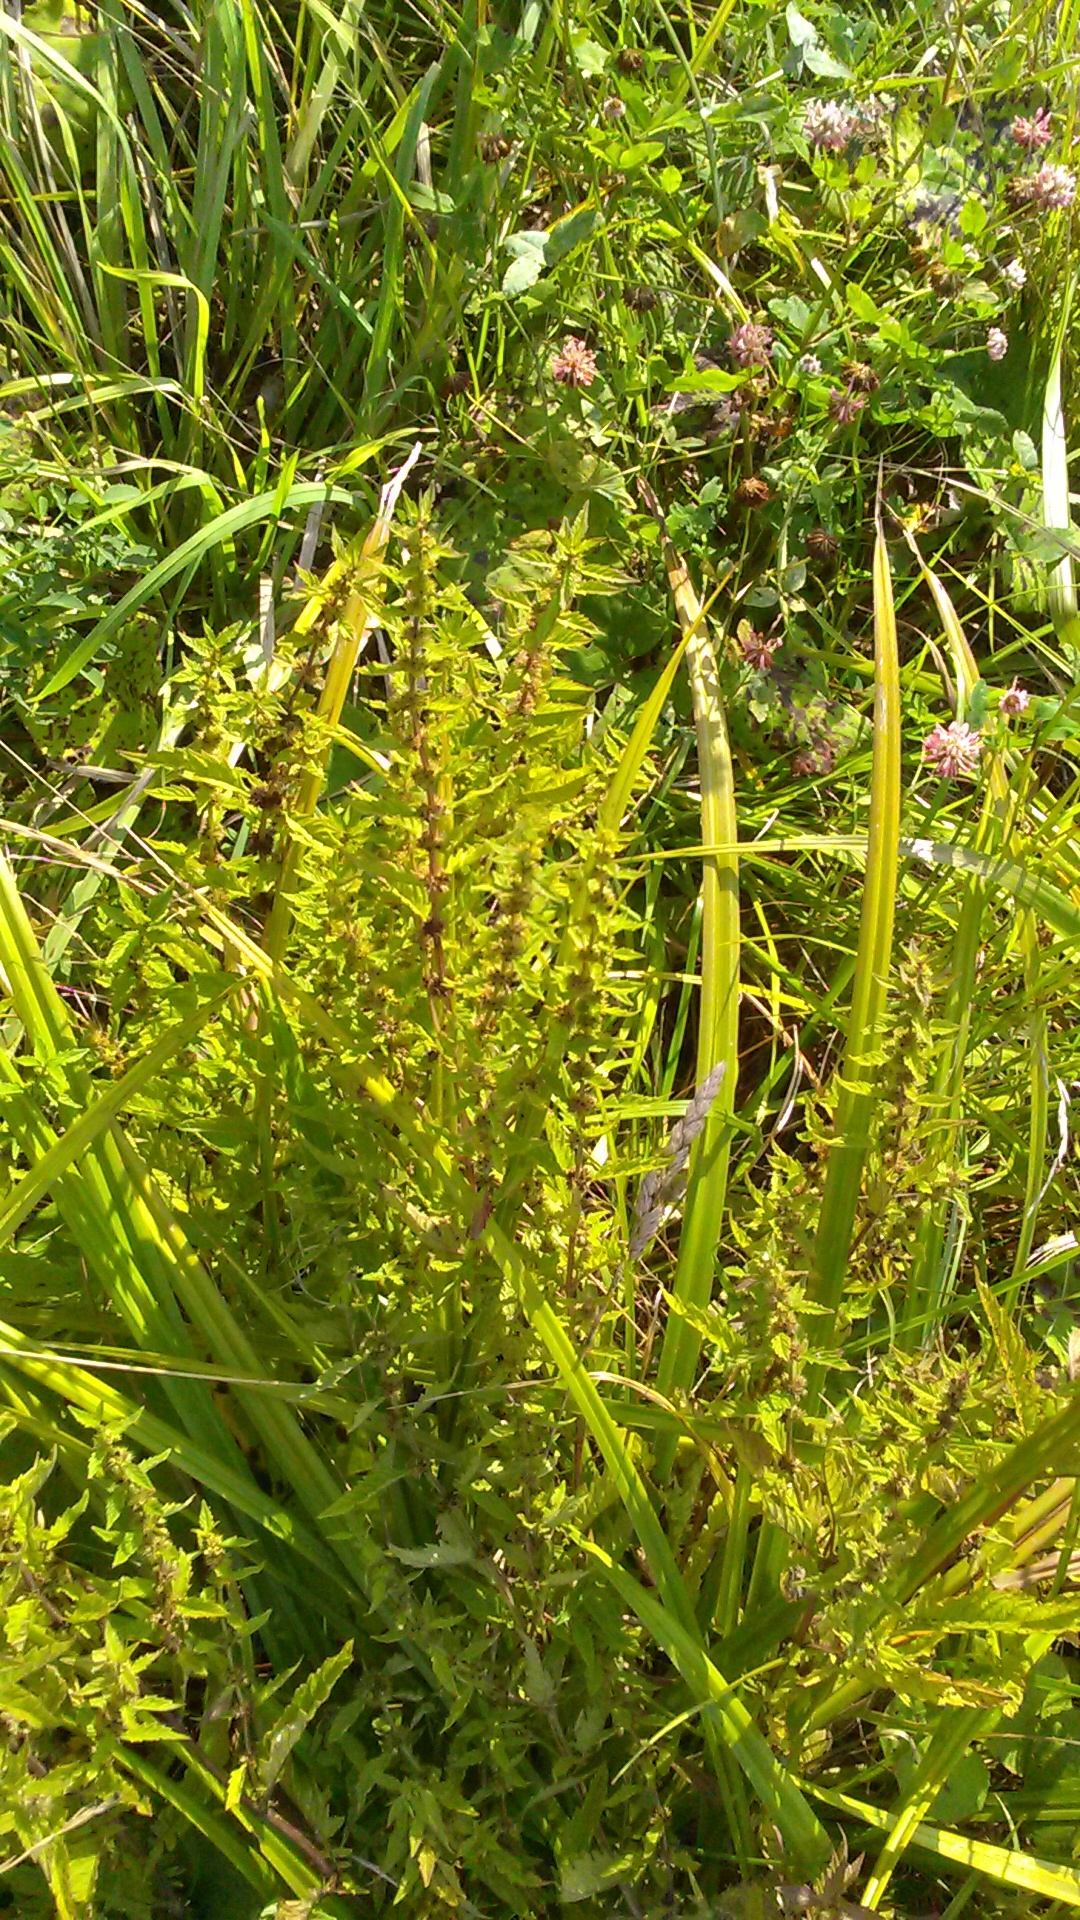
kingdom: Plantae
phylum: Tracheophyta
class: Magnoliopsida
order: Lamiales
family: Lamiaceae
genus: Lycopus
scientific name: Lycopus europaeus
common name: European bugleweed
